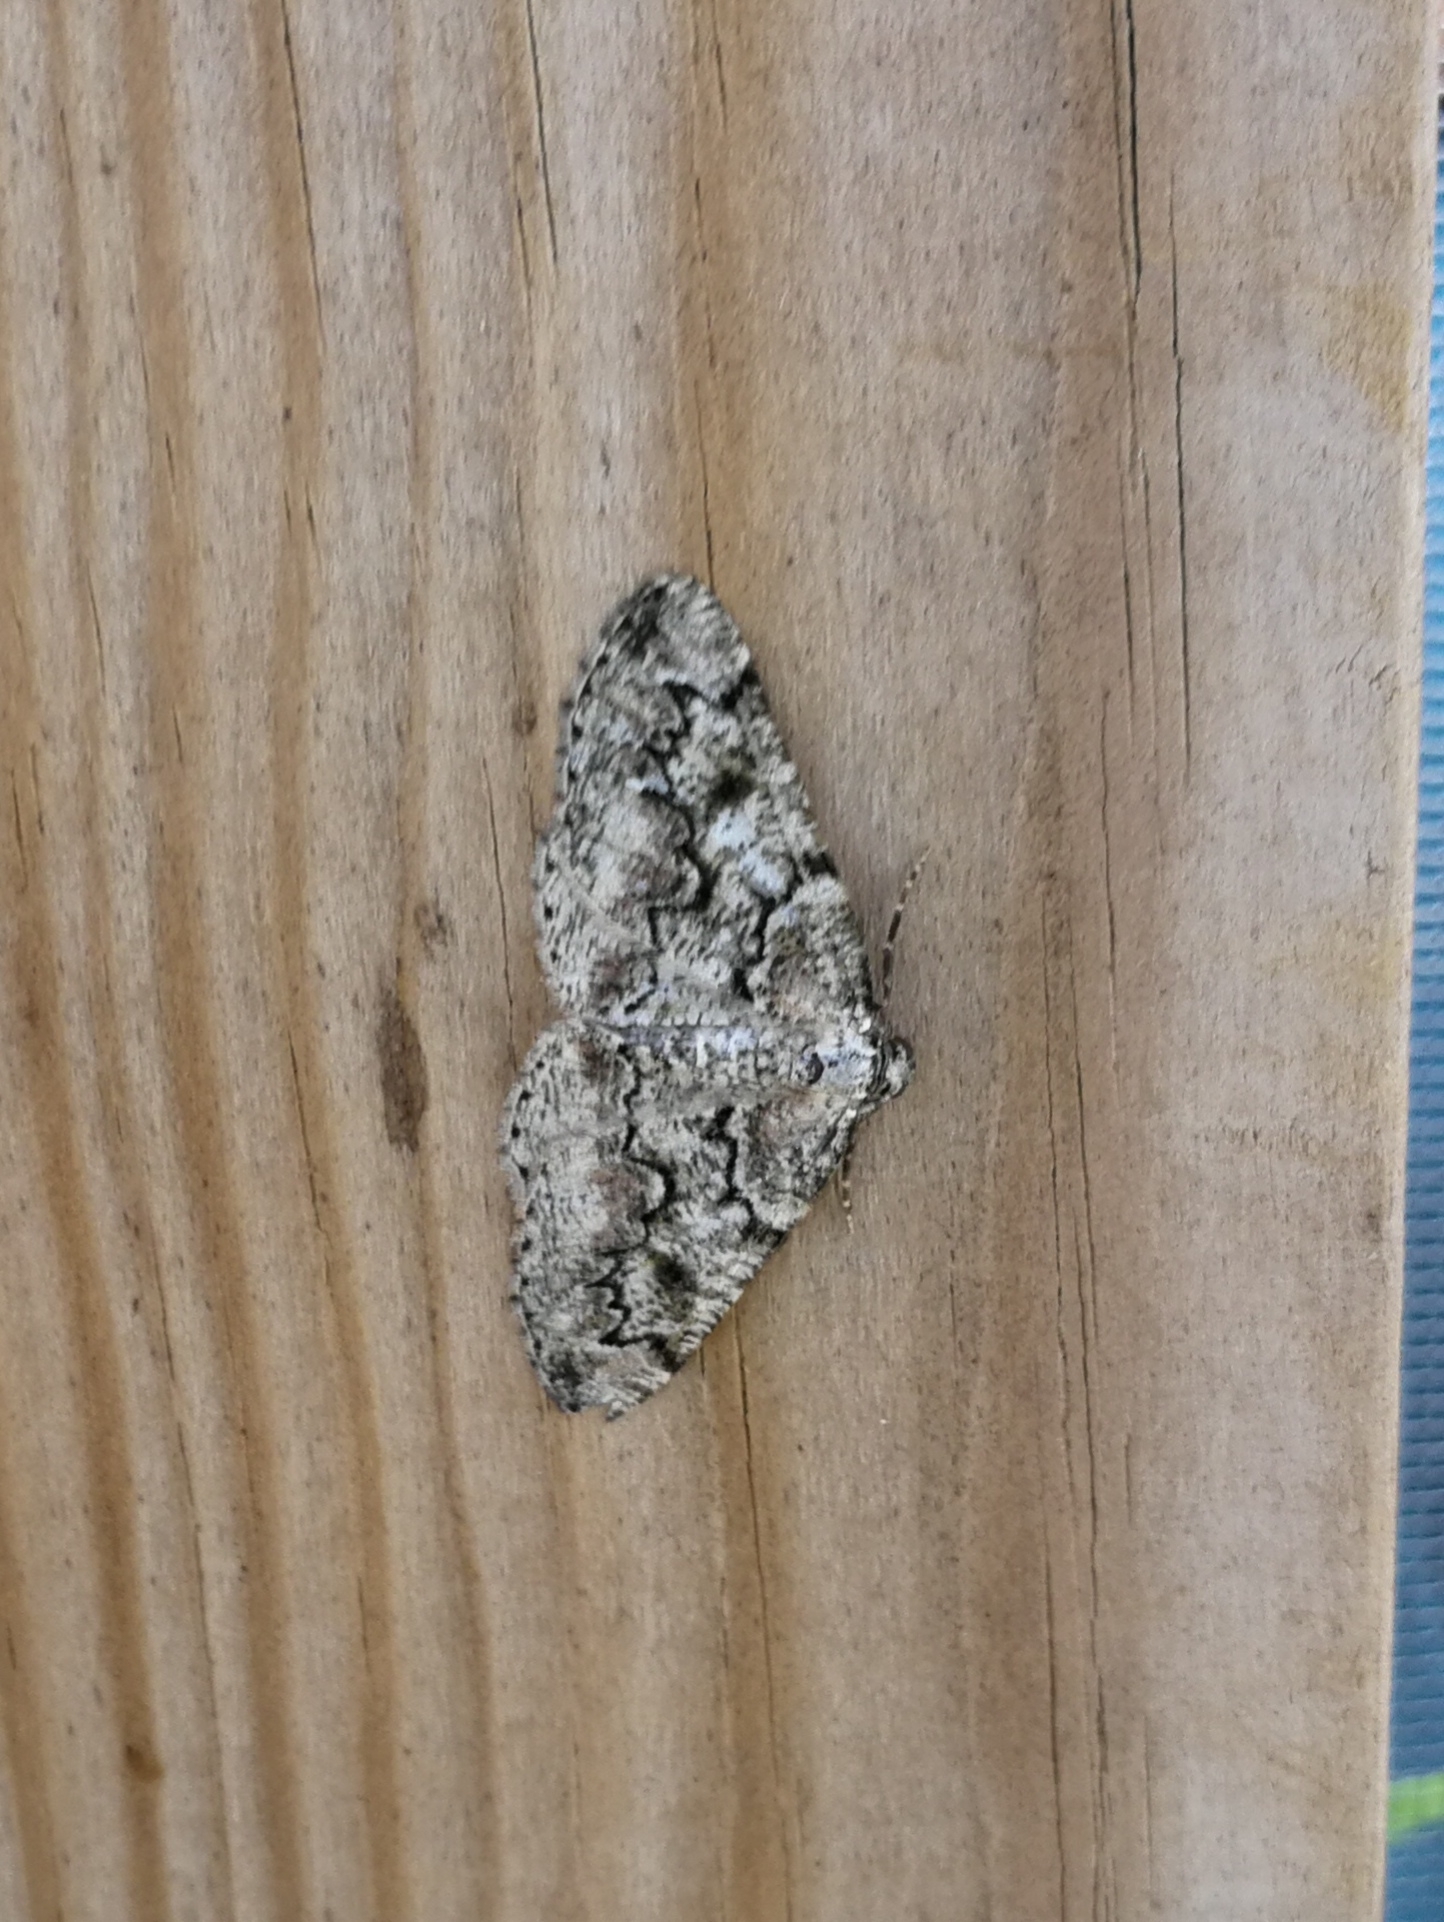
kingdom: Animalia
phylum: Arthropoda
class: Insecta
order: Lepidoptera
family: Geometridae
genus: Cleorodes
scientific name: Cleorodes lichenaria
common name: Brussels lace
